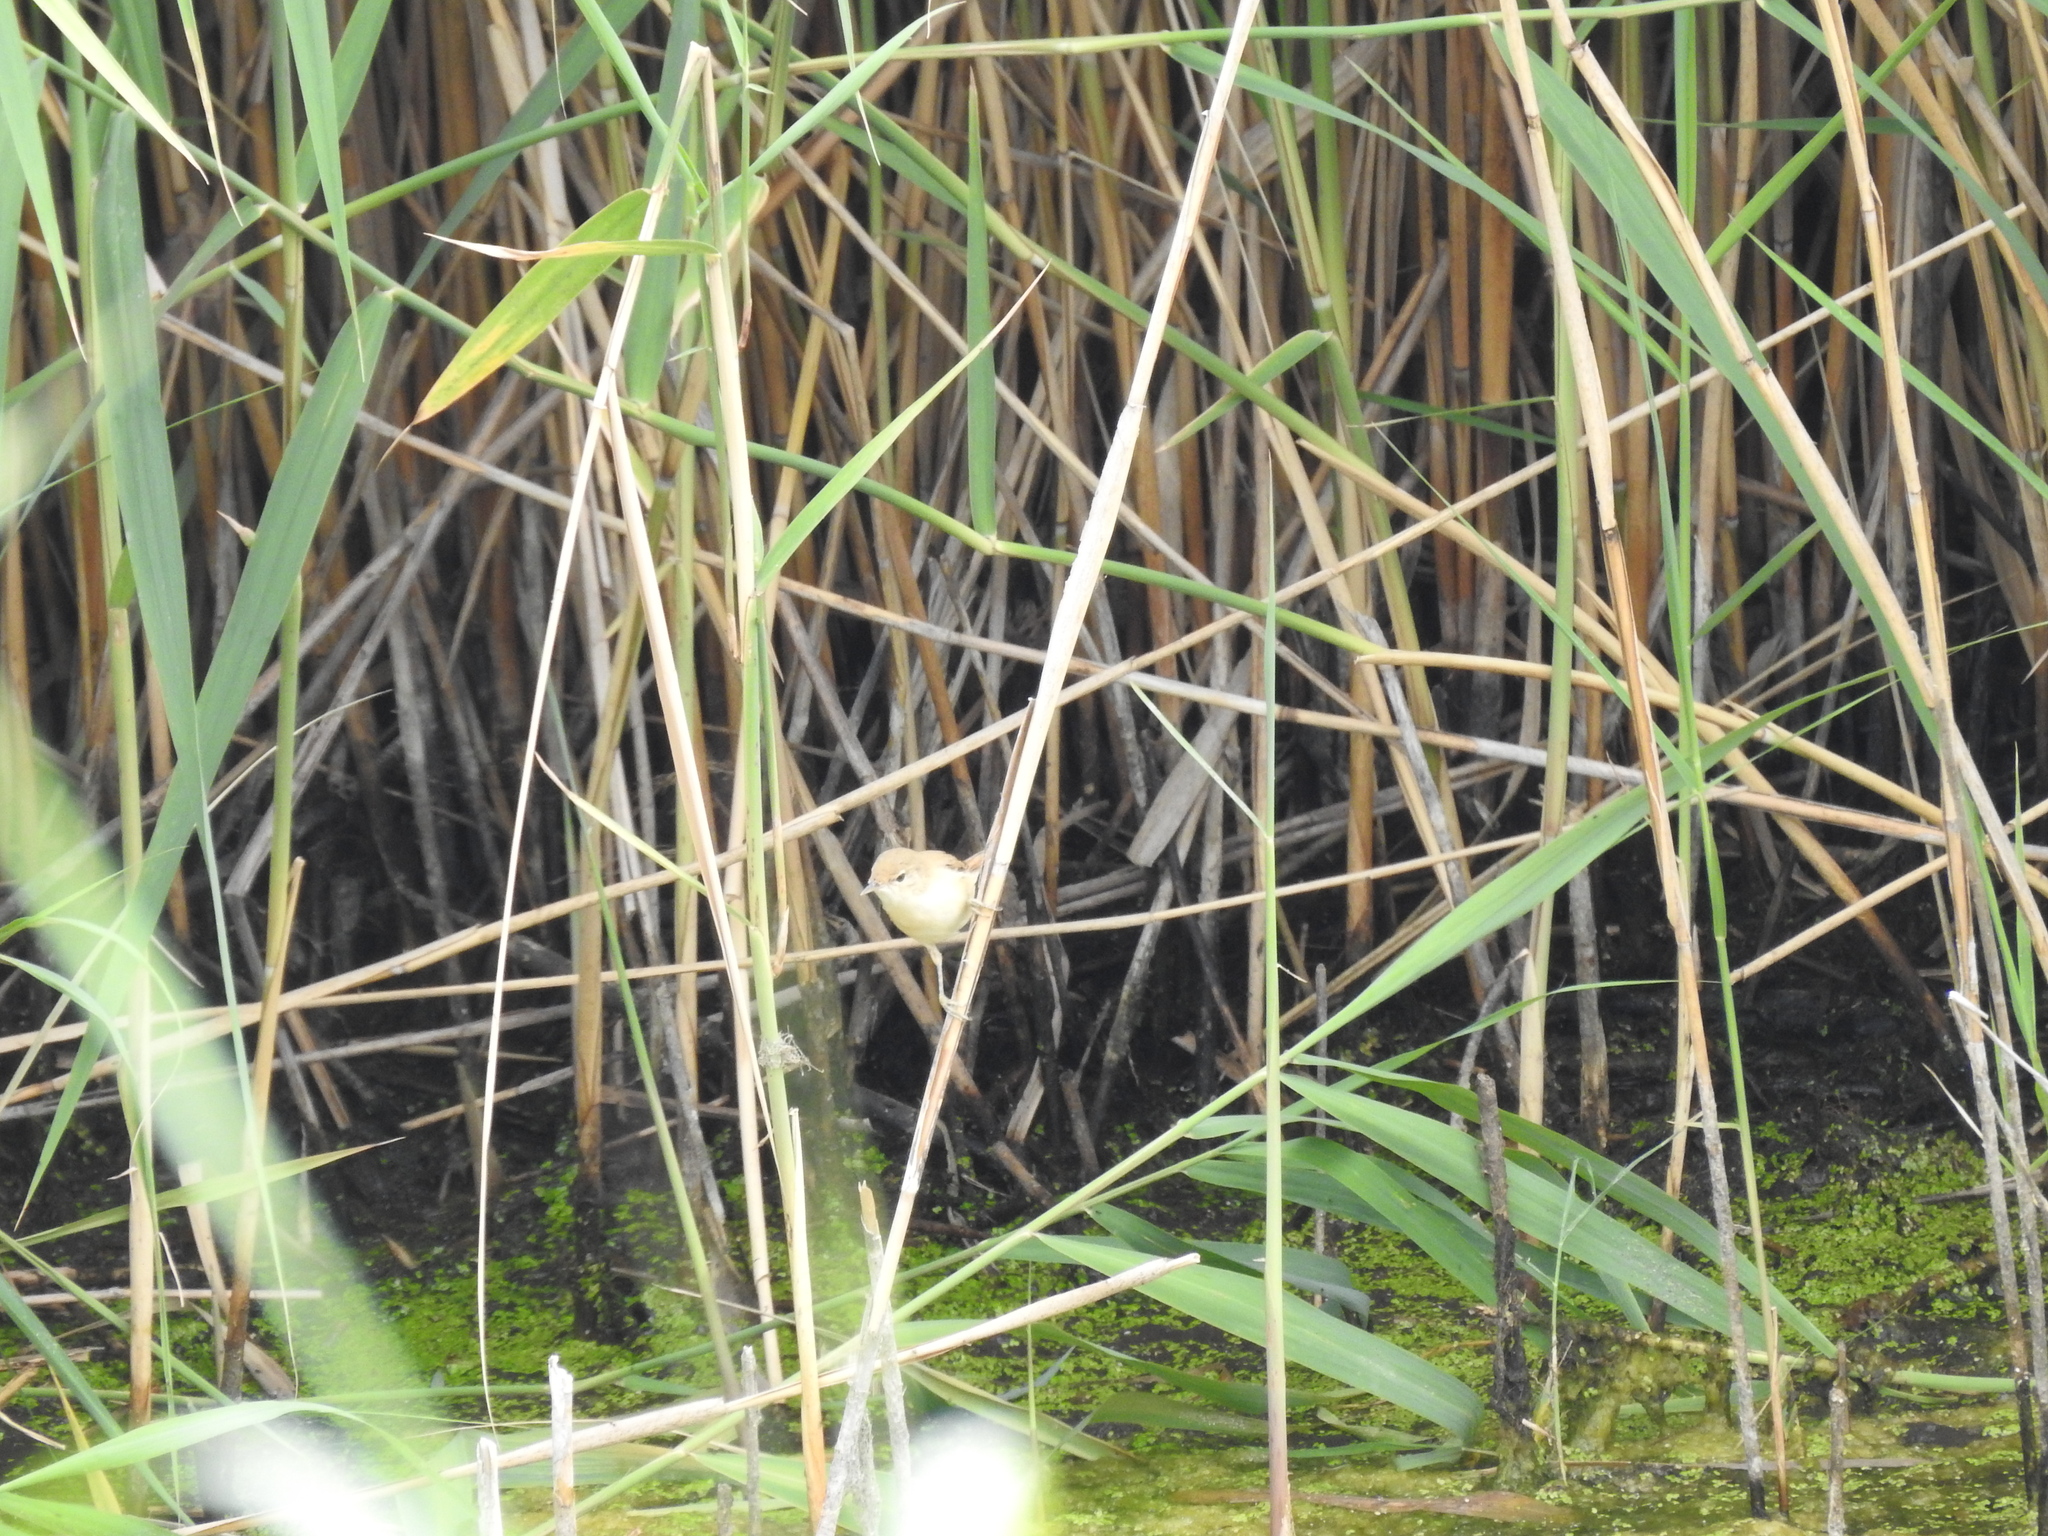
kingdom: Animalia
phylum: Chordata
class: Aves
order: Passeriformes
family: Acrocephalidae
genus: Acrocephalus
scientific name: Acrocephalus scirpaceus
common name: Eurasian reed warbler
